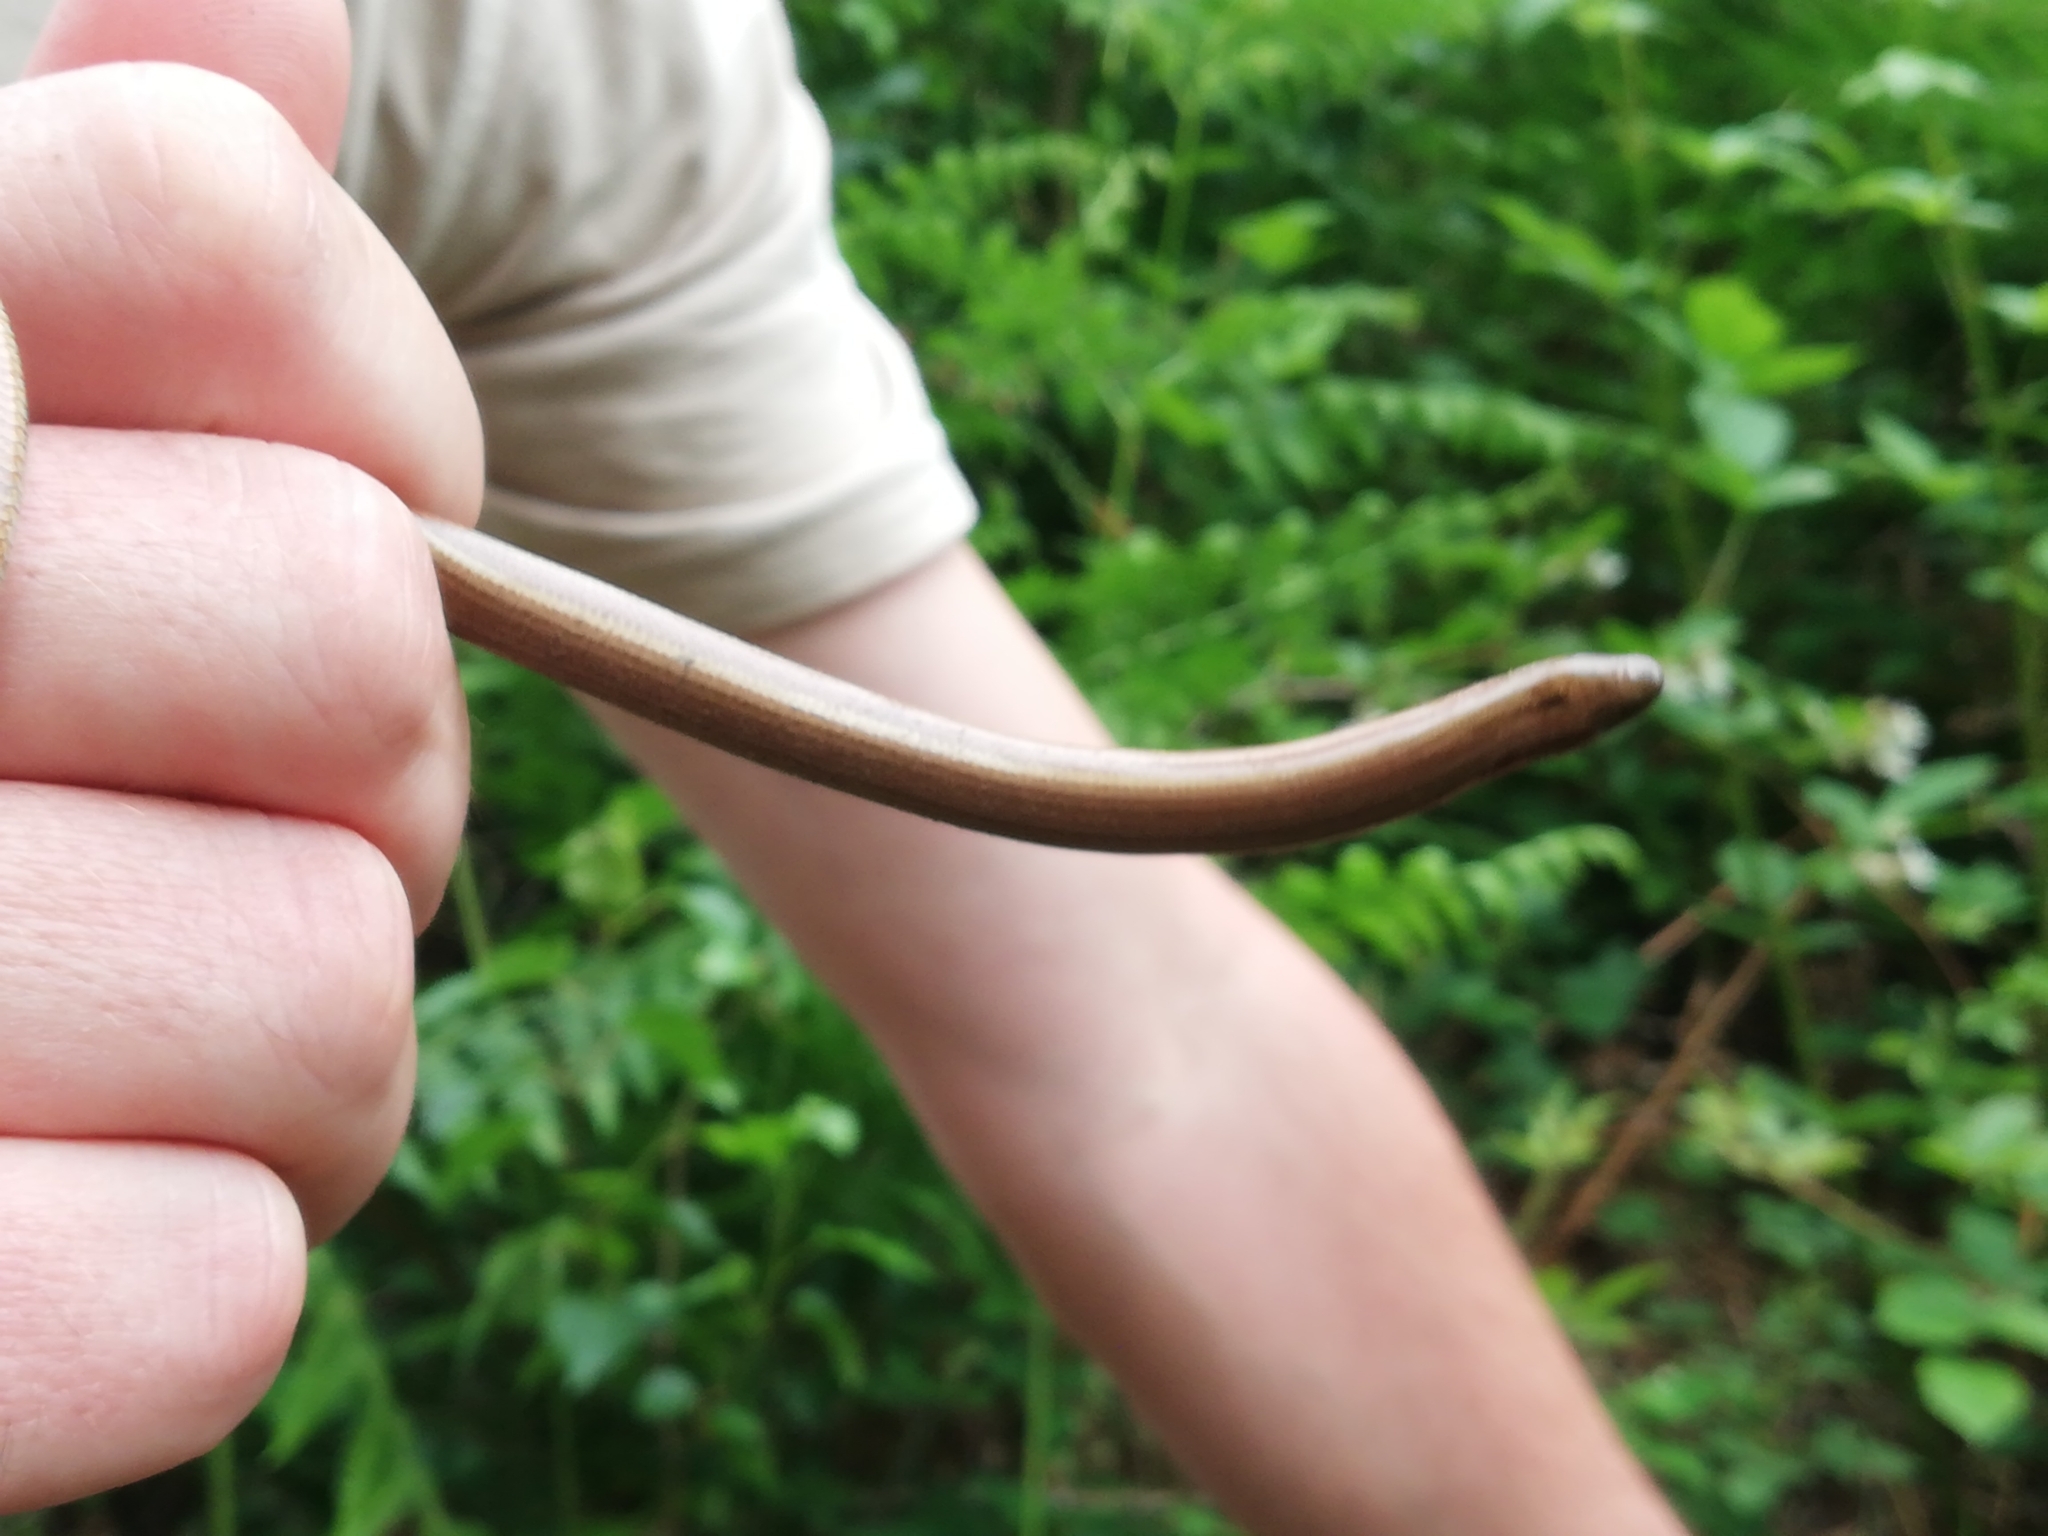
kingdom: Animalia
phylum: Chordata
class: Squamata
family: Anguidae
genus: Anguis
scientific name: Anguis fragilis
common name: Slow worm
